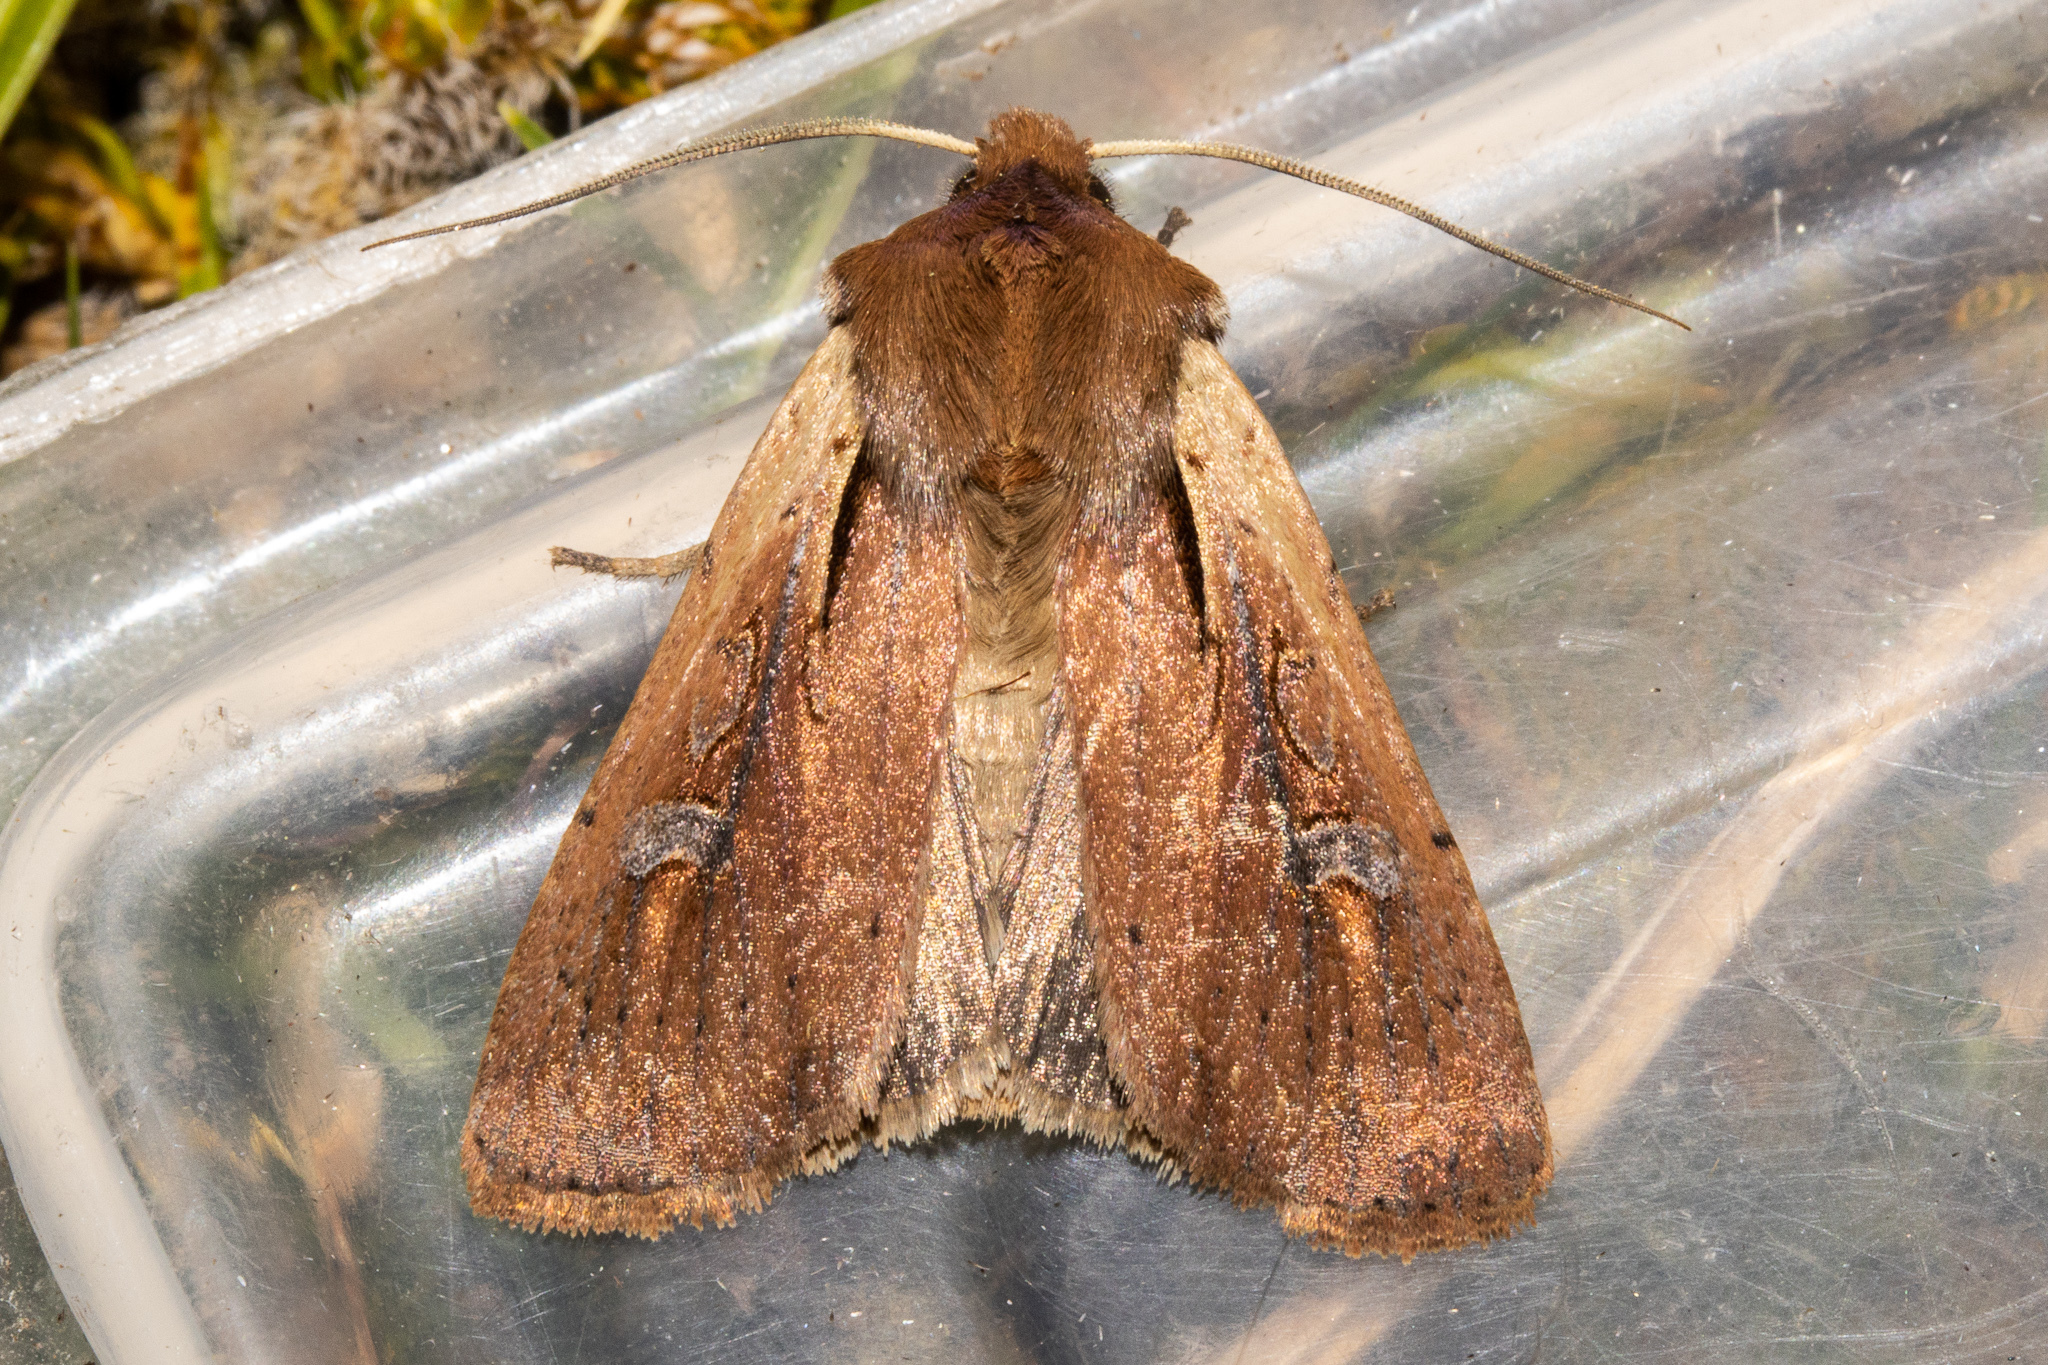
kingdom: Animalia
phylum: Arthropoda
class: Insecta
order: Lepidoptera
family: Noctuidae
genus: Ichneutica
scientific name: Ichneutica atristriga
